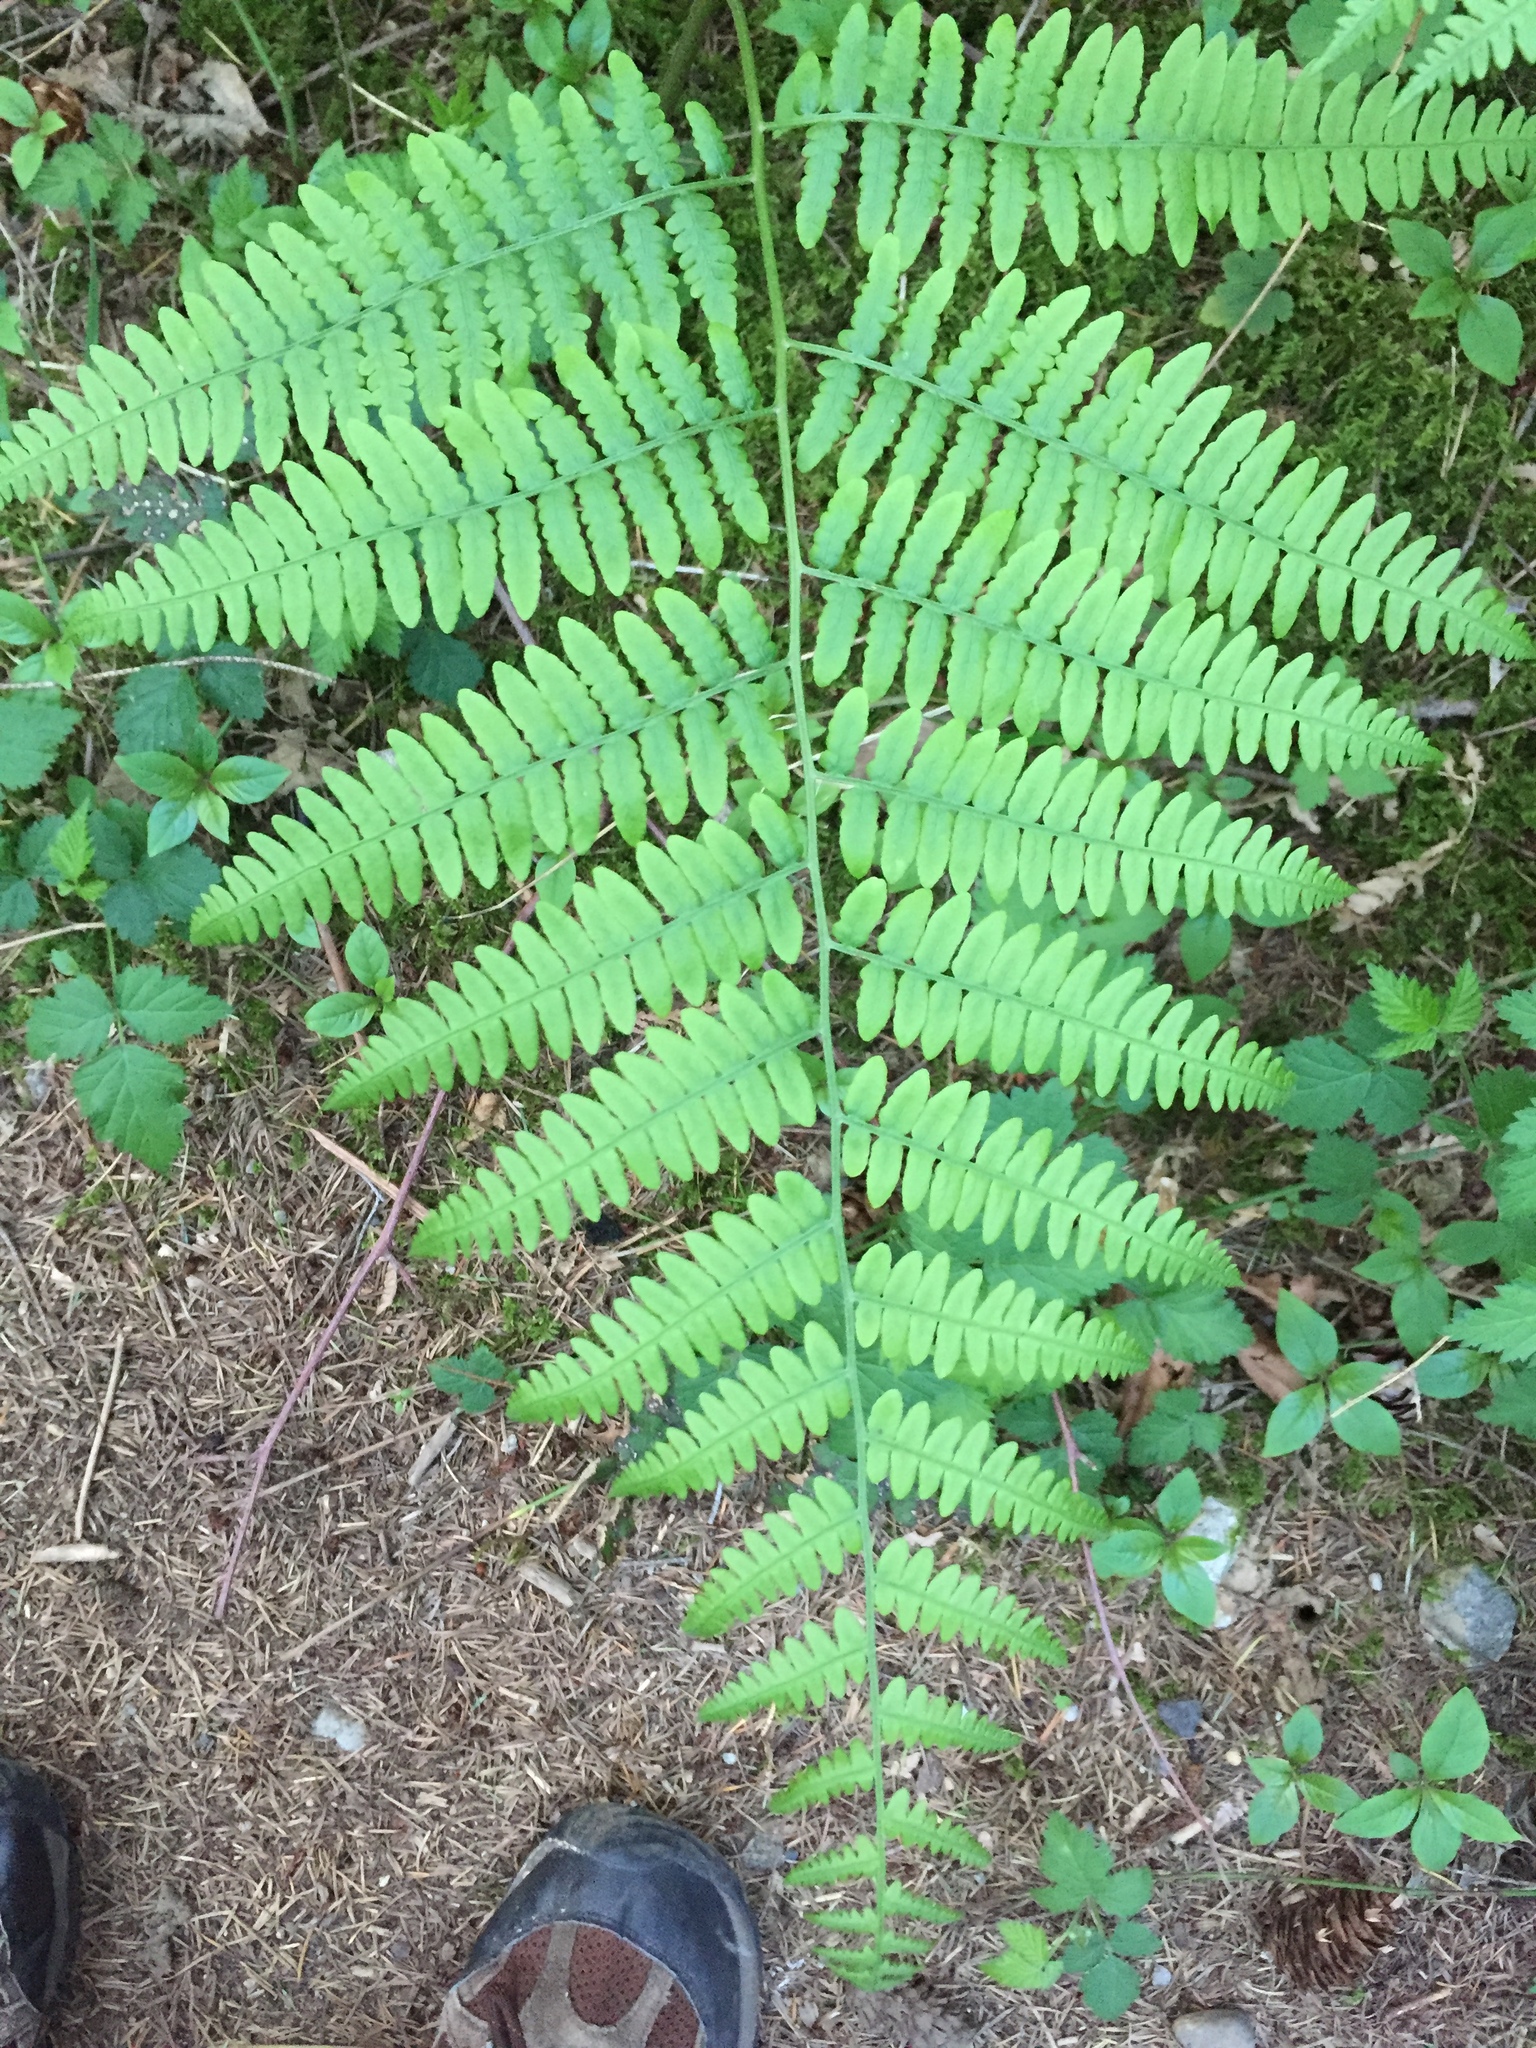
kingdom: Plantae
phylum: Tracheophyta
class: Polypodiopsida
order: Polypodiales
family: Dennstaedtiaceae
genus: Pteridium
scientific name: Pteridium aquilinum
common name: Bracken
